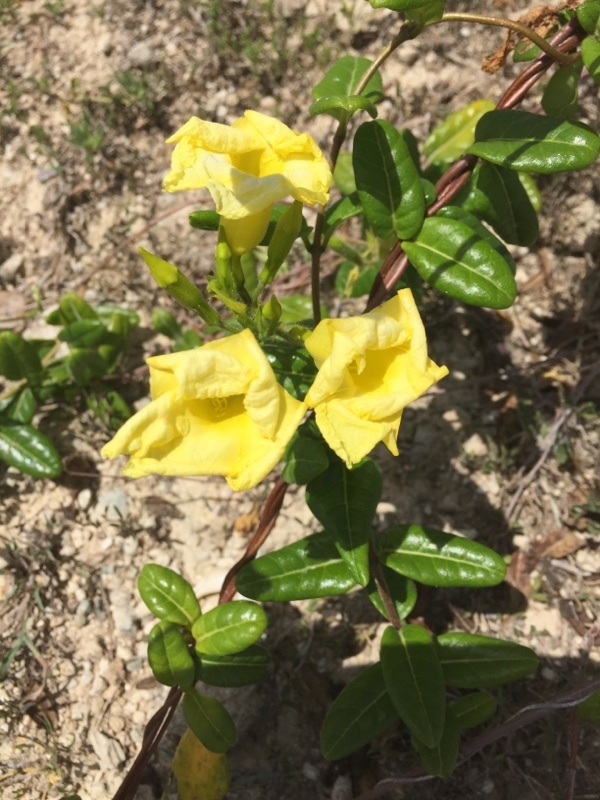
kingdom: Plantae
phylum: Tracheophyta
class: Magnoliopsida
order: Gentianales
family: Apocynaceae
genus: Pentalinon
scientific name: Pentalinon luteum
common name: Licebush
